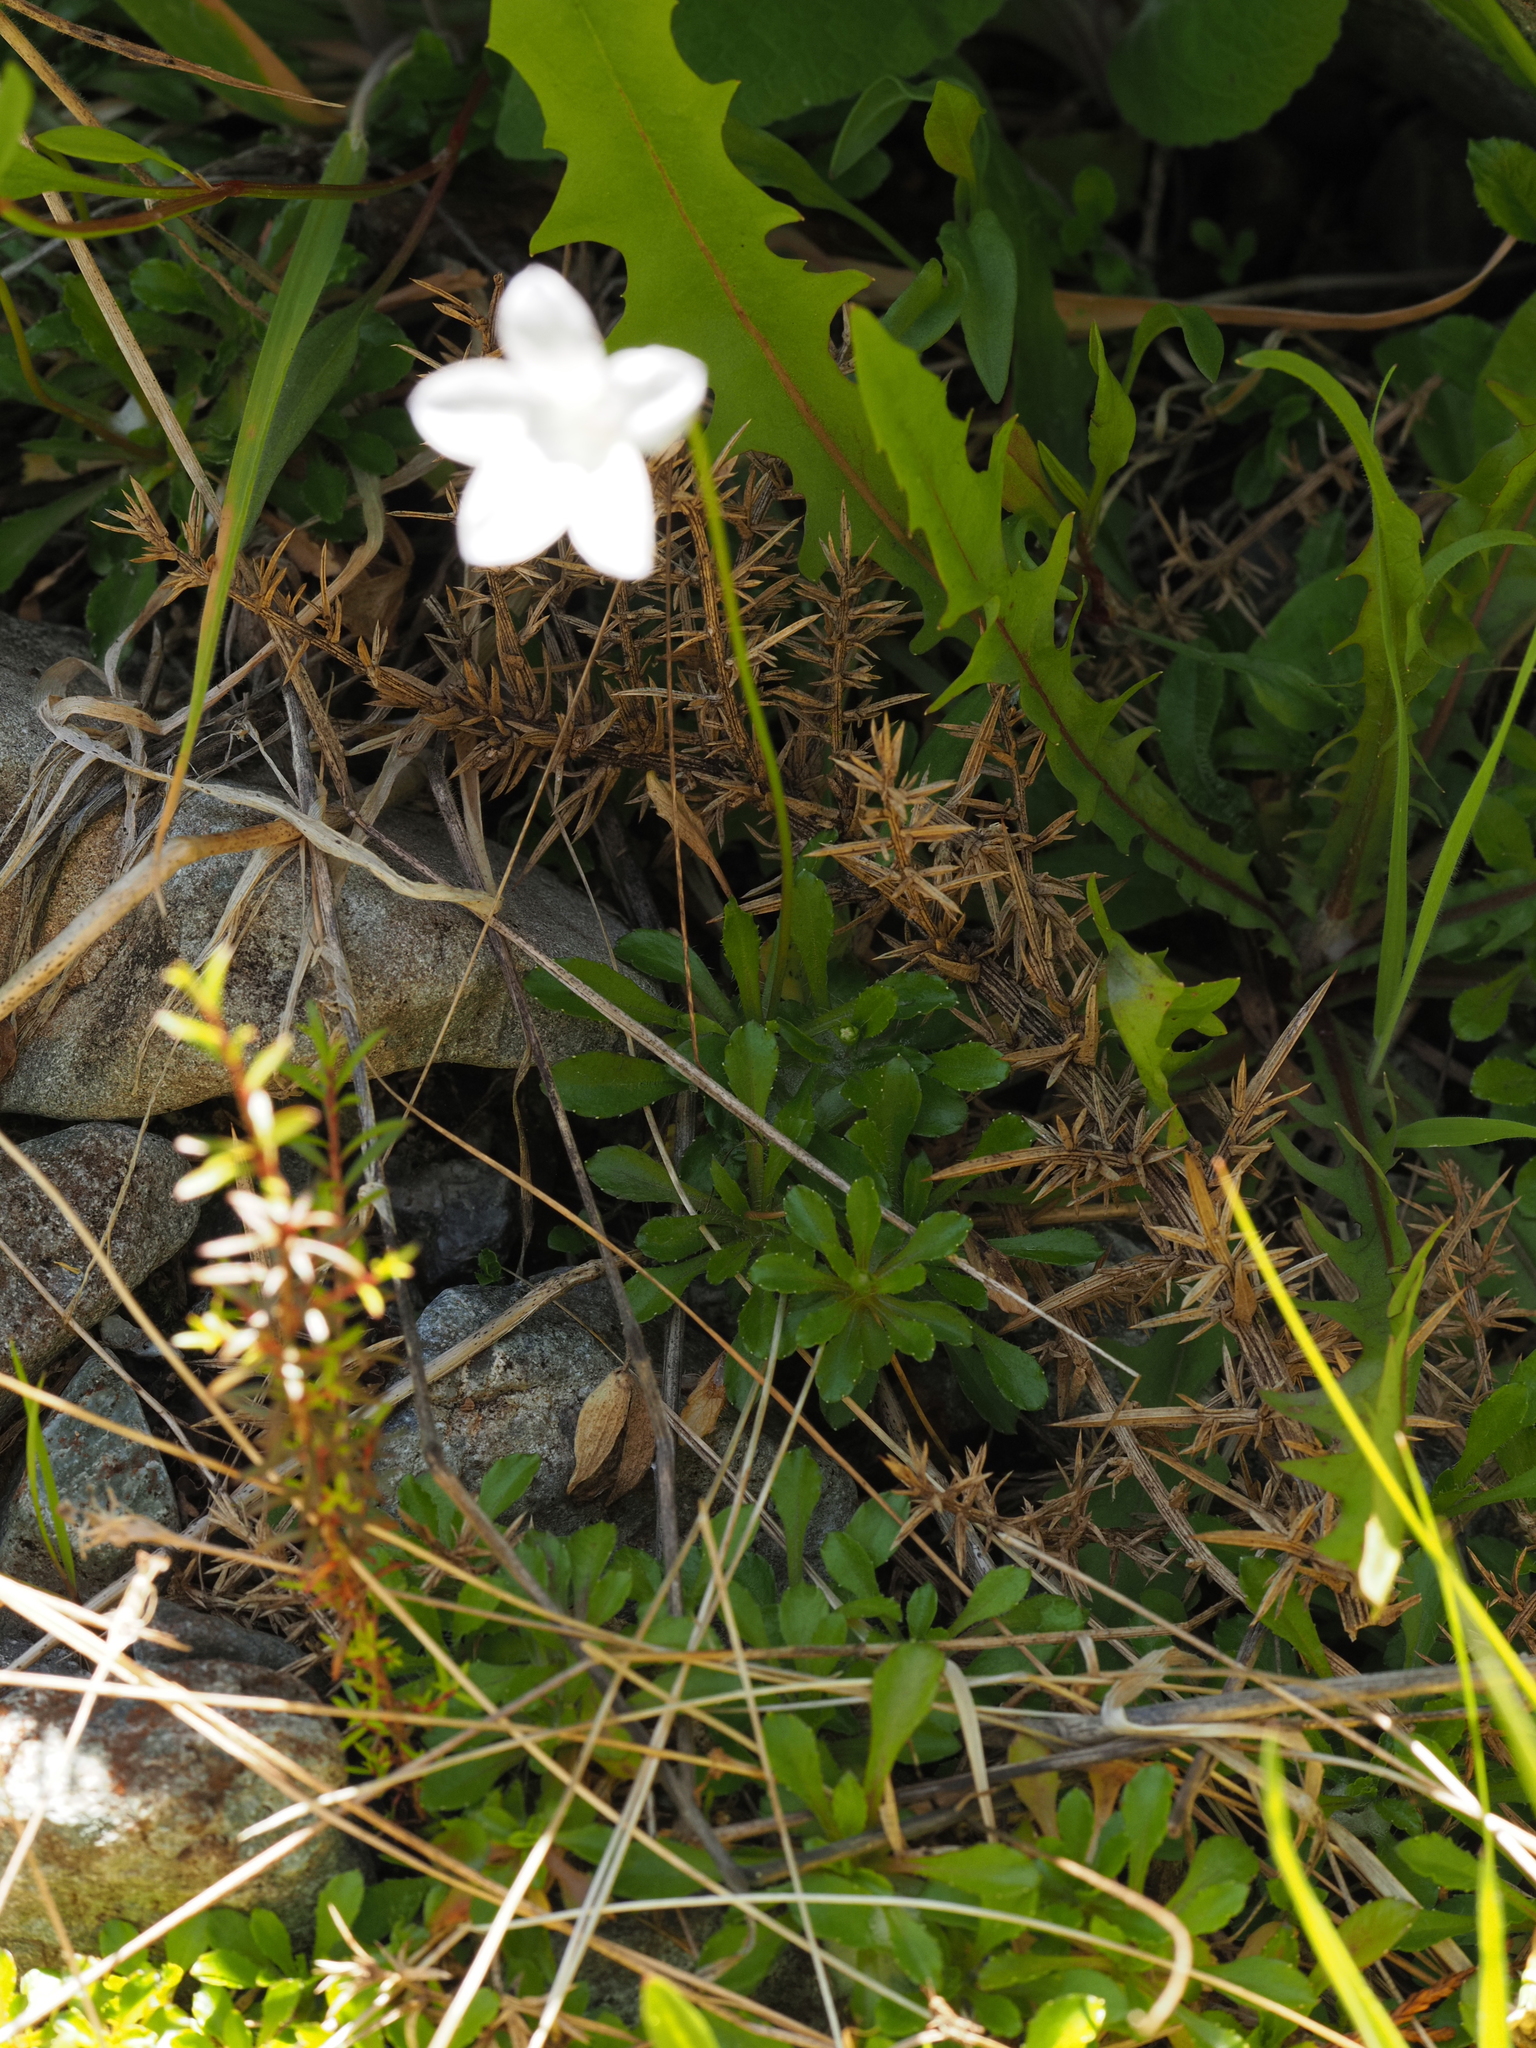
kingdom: Plantae
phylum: Tracheophyta
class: Magnoliopsida
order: Asterales
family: Campanulaceae
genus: Wahlenbergia
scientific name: Wahlenbergia albomarginata
